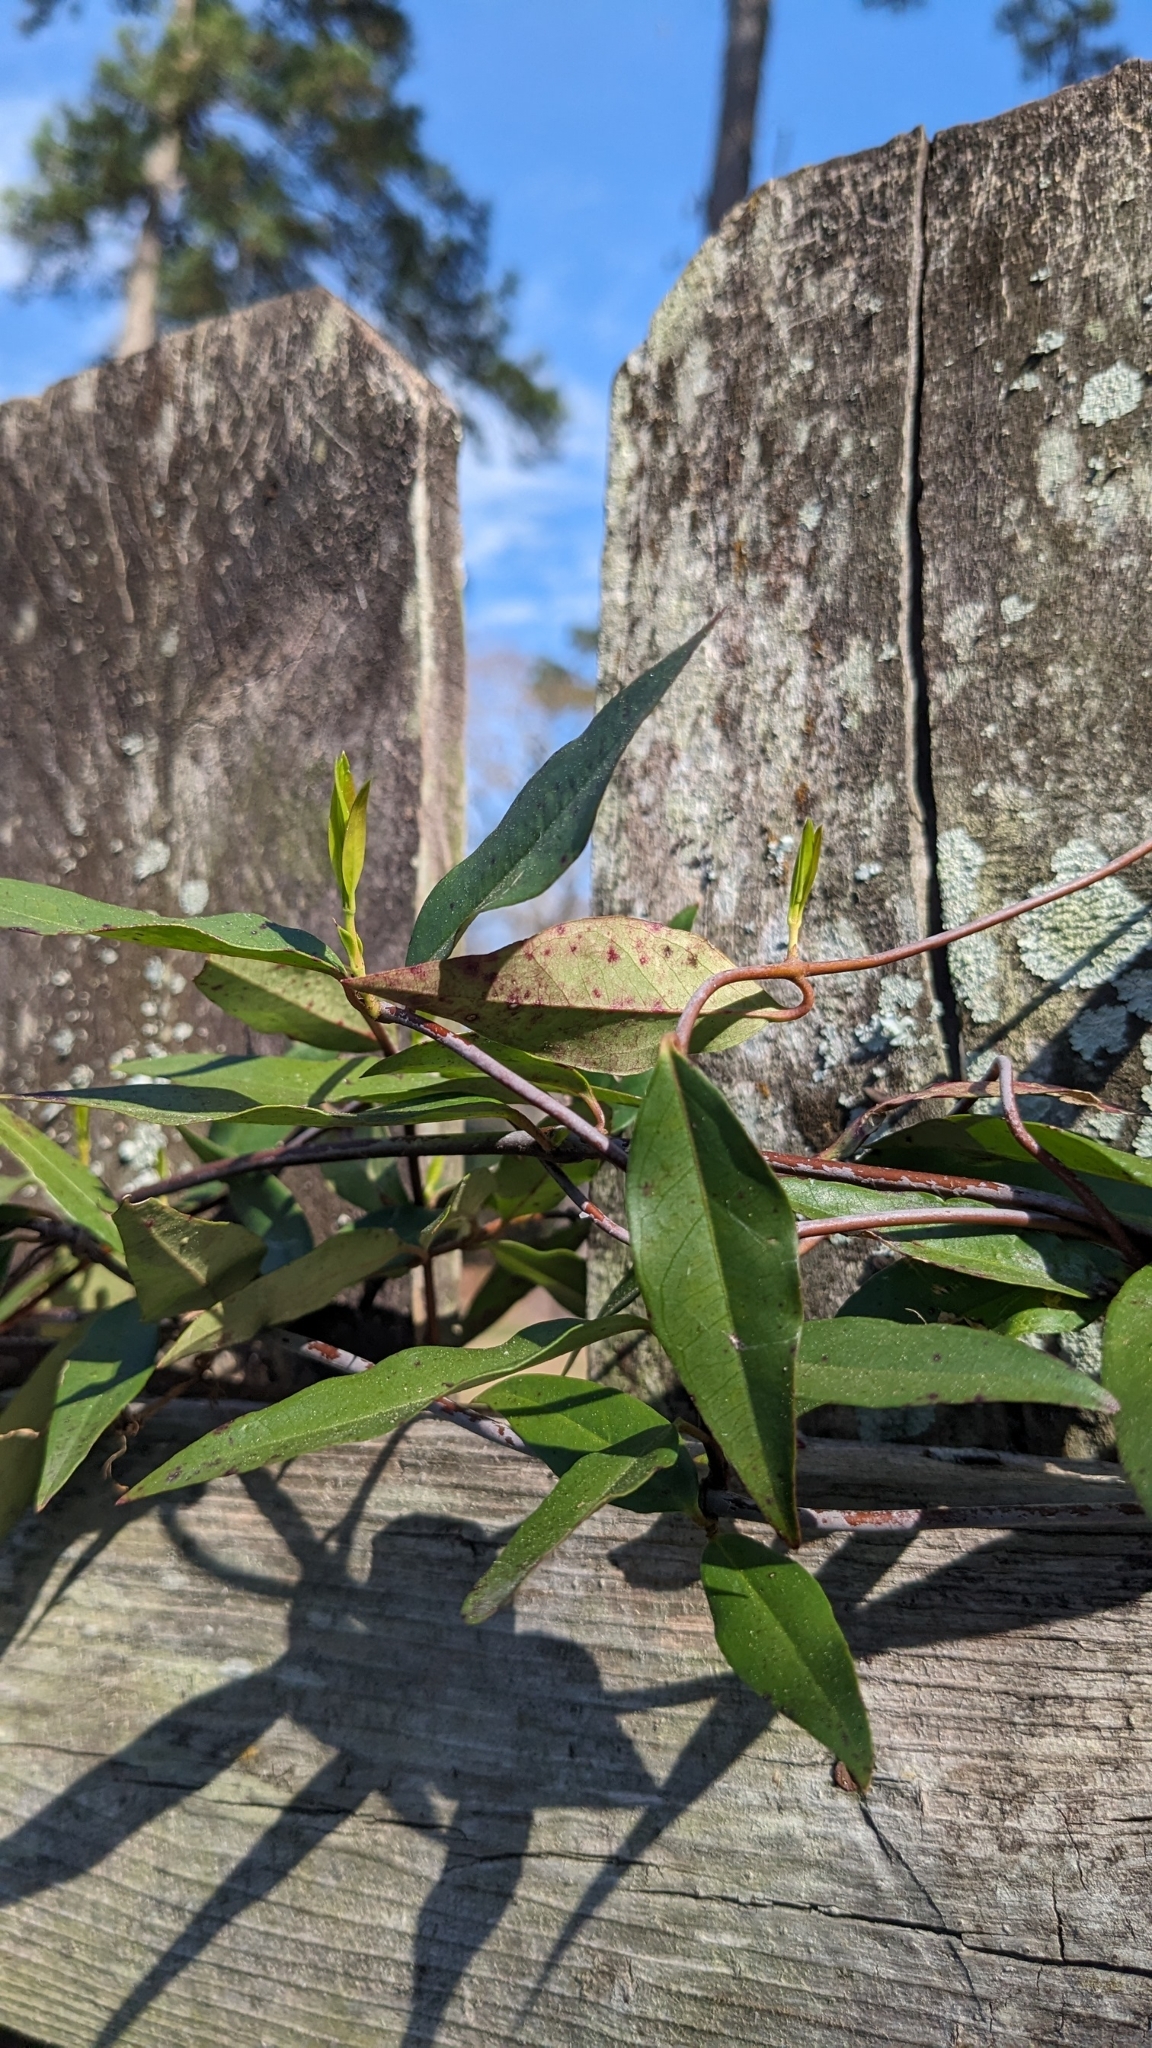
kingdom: Plantae
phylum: Tracheophyta
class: Magnoliopsida
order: Gentianales
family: Gelsemiaceae
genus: Gelsemium
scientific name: Gelsemium sempervirens
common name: Carolina-jasmine
